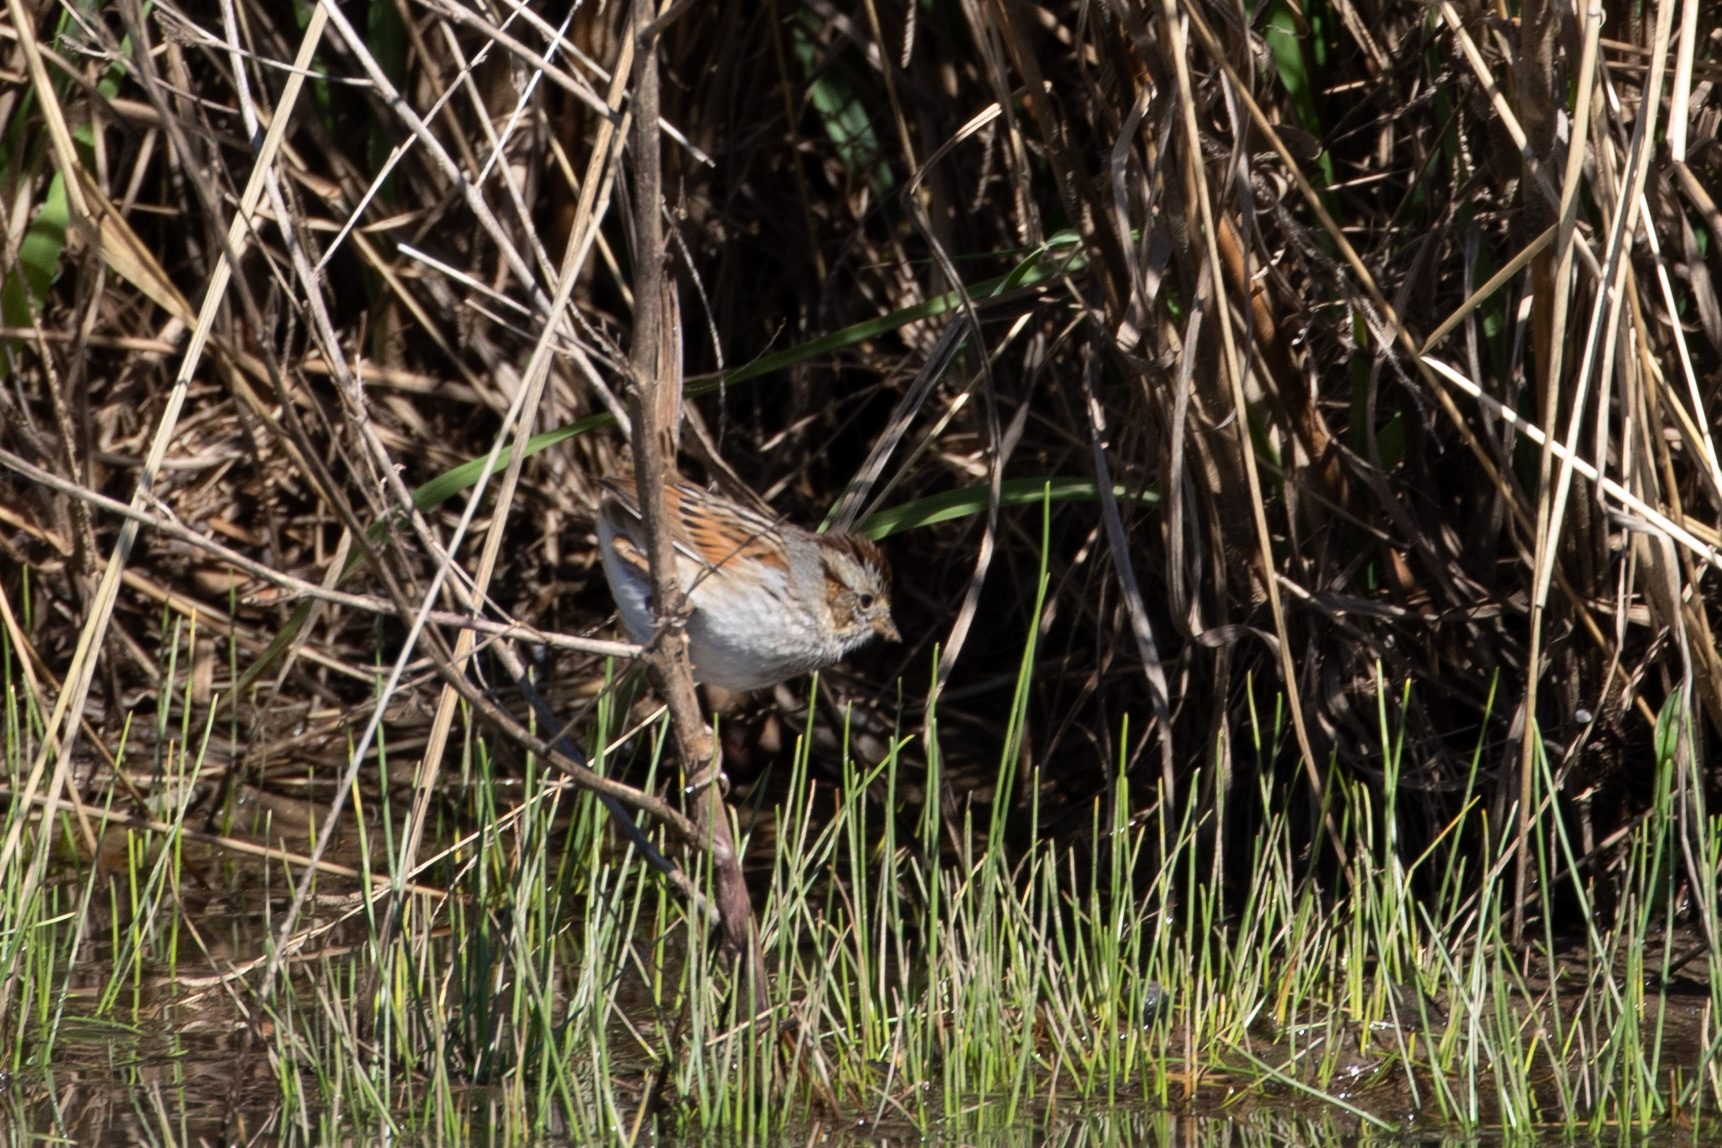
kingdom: Animalia
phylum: Chordata
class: Aves
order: Passeriformes
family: Passerellidae
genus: Melospiza
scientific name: Melospiza georgiana
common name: Swamp sparrow
